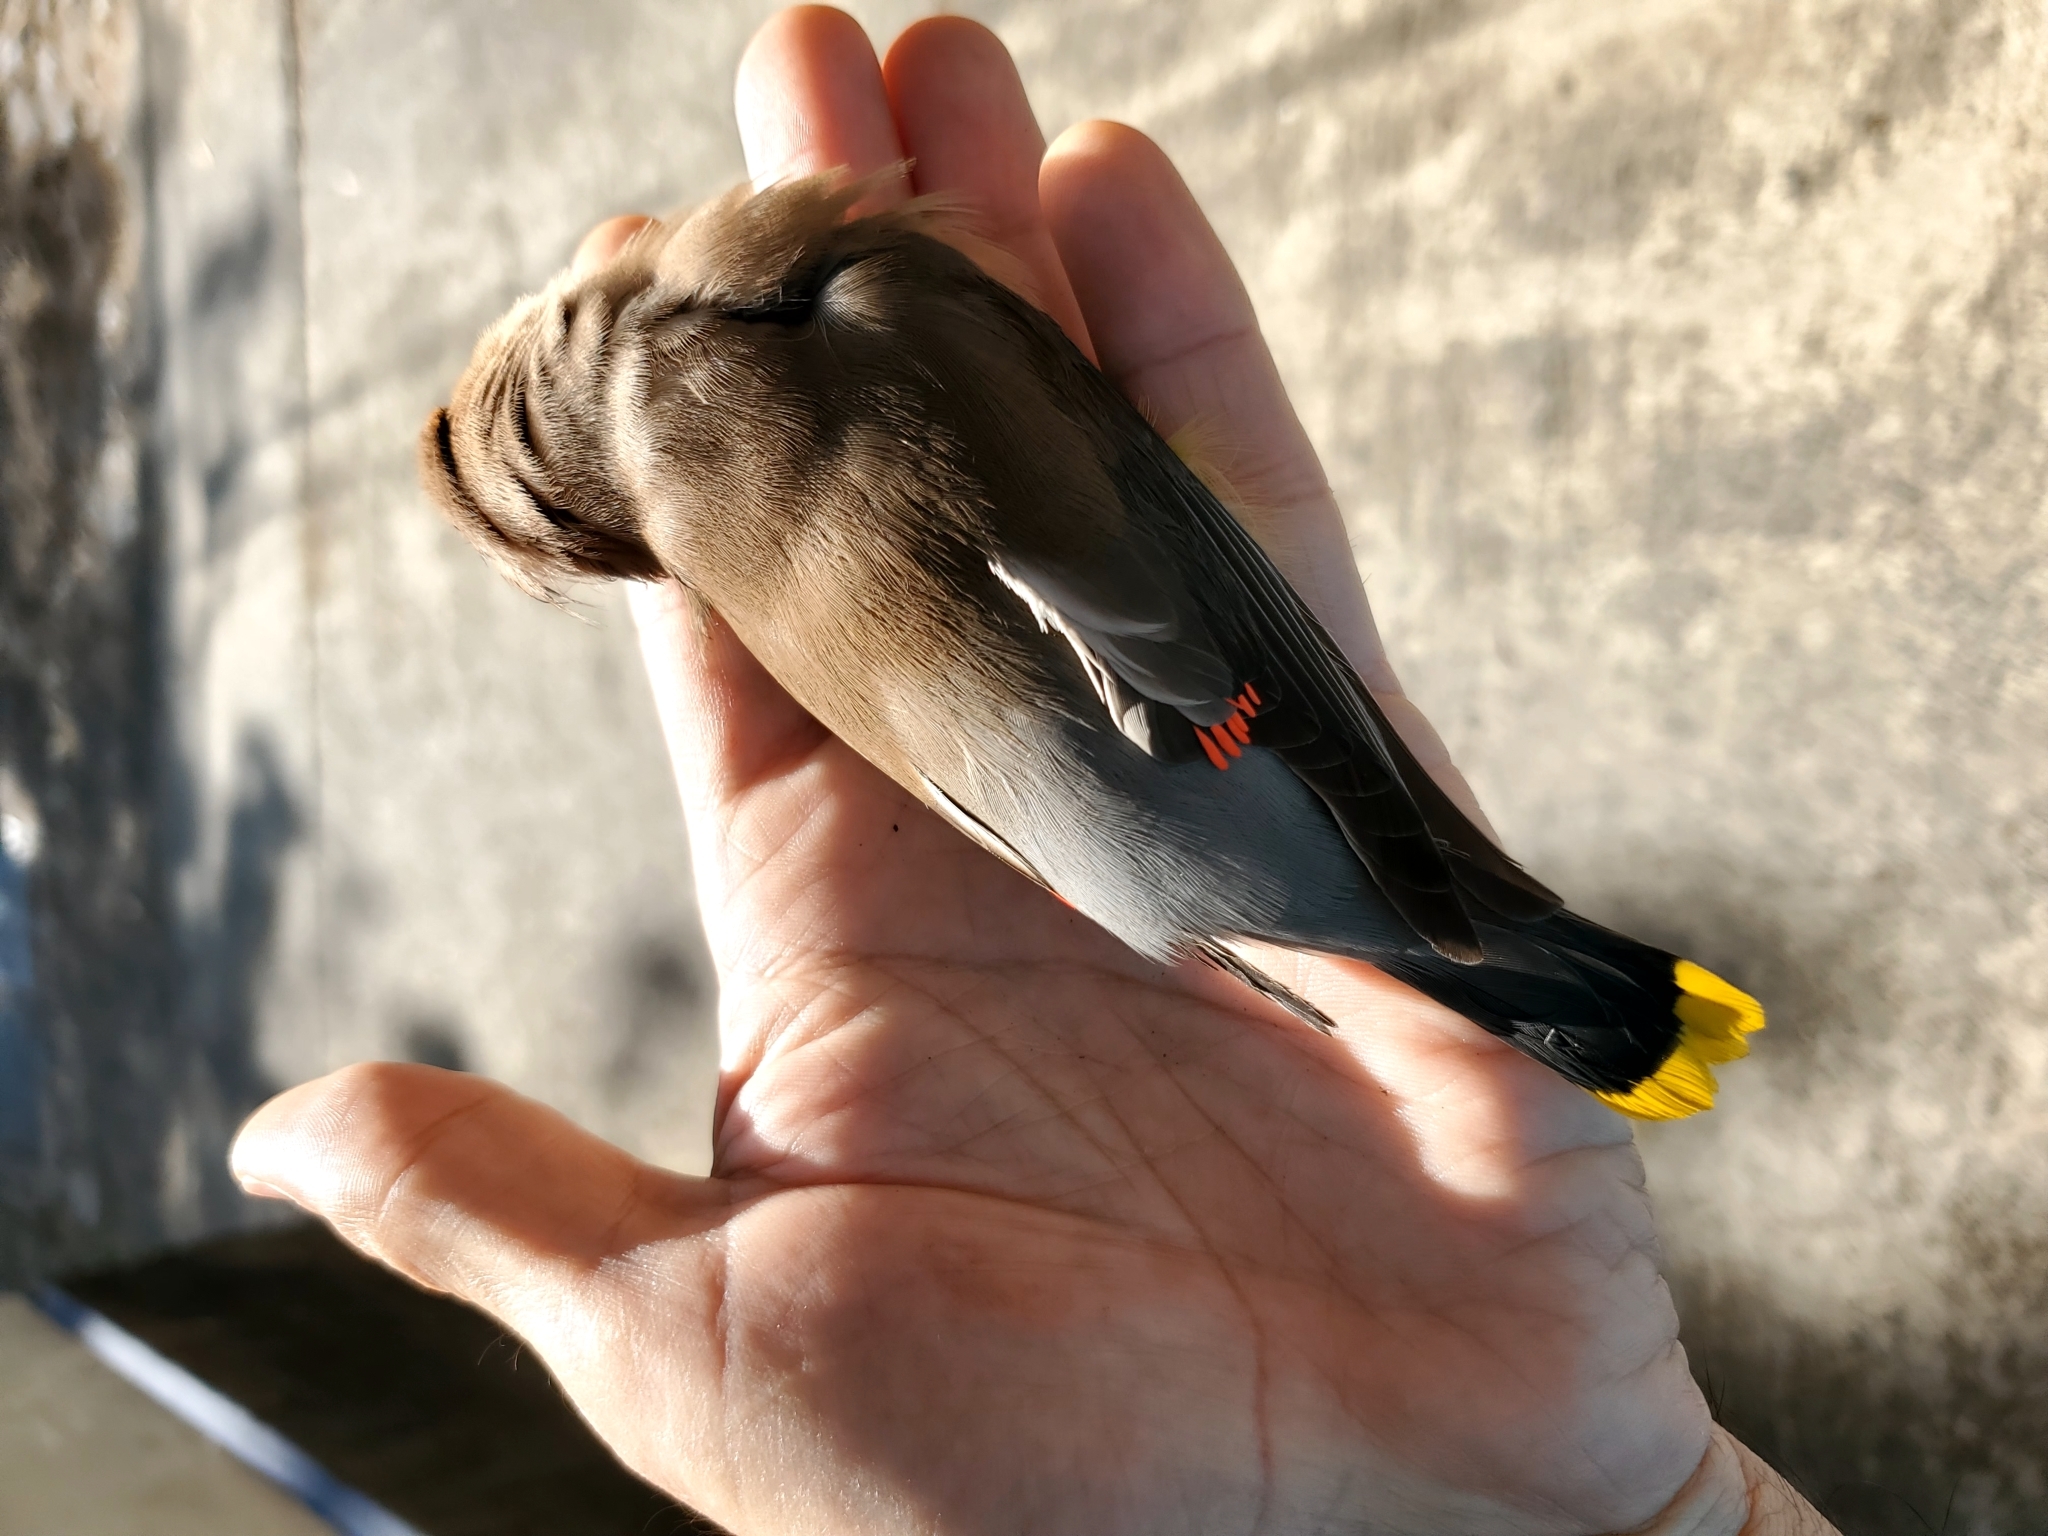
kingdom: Animalia
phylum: Chordata
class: Aves
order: Passeriformes
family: Bombycillidae
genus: Bombycilla
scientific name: Bombycilla cedrorum
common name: Cedar waxwing
